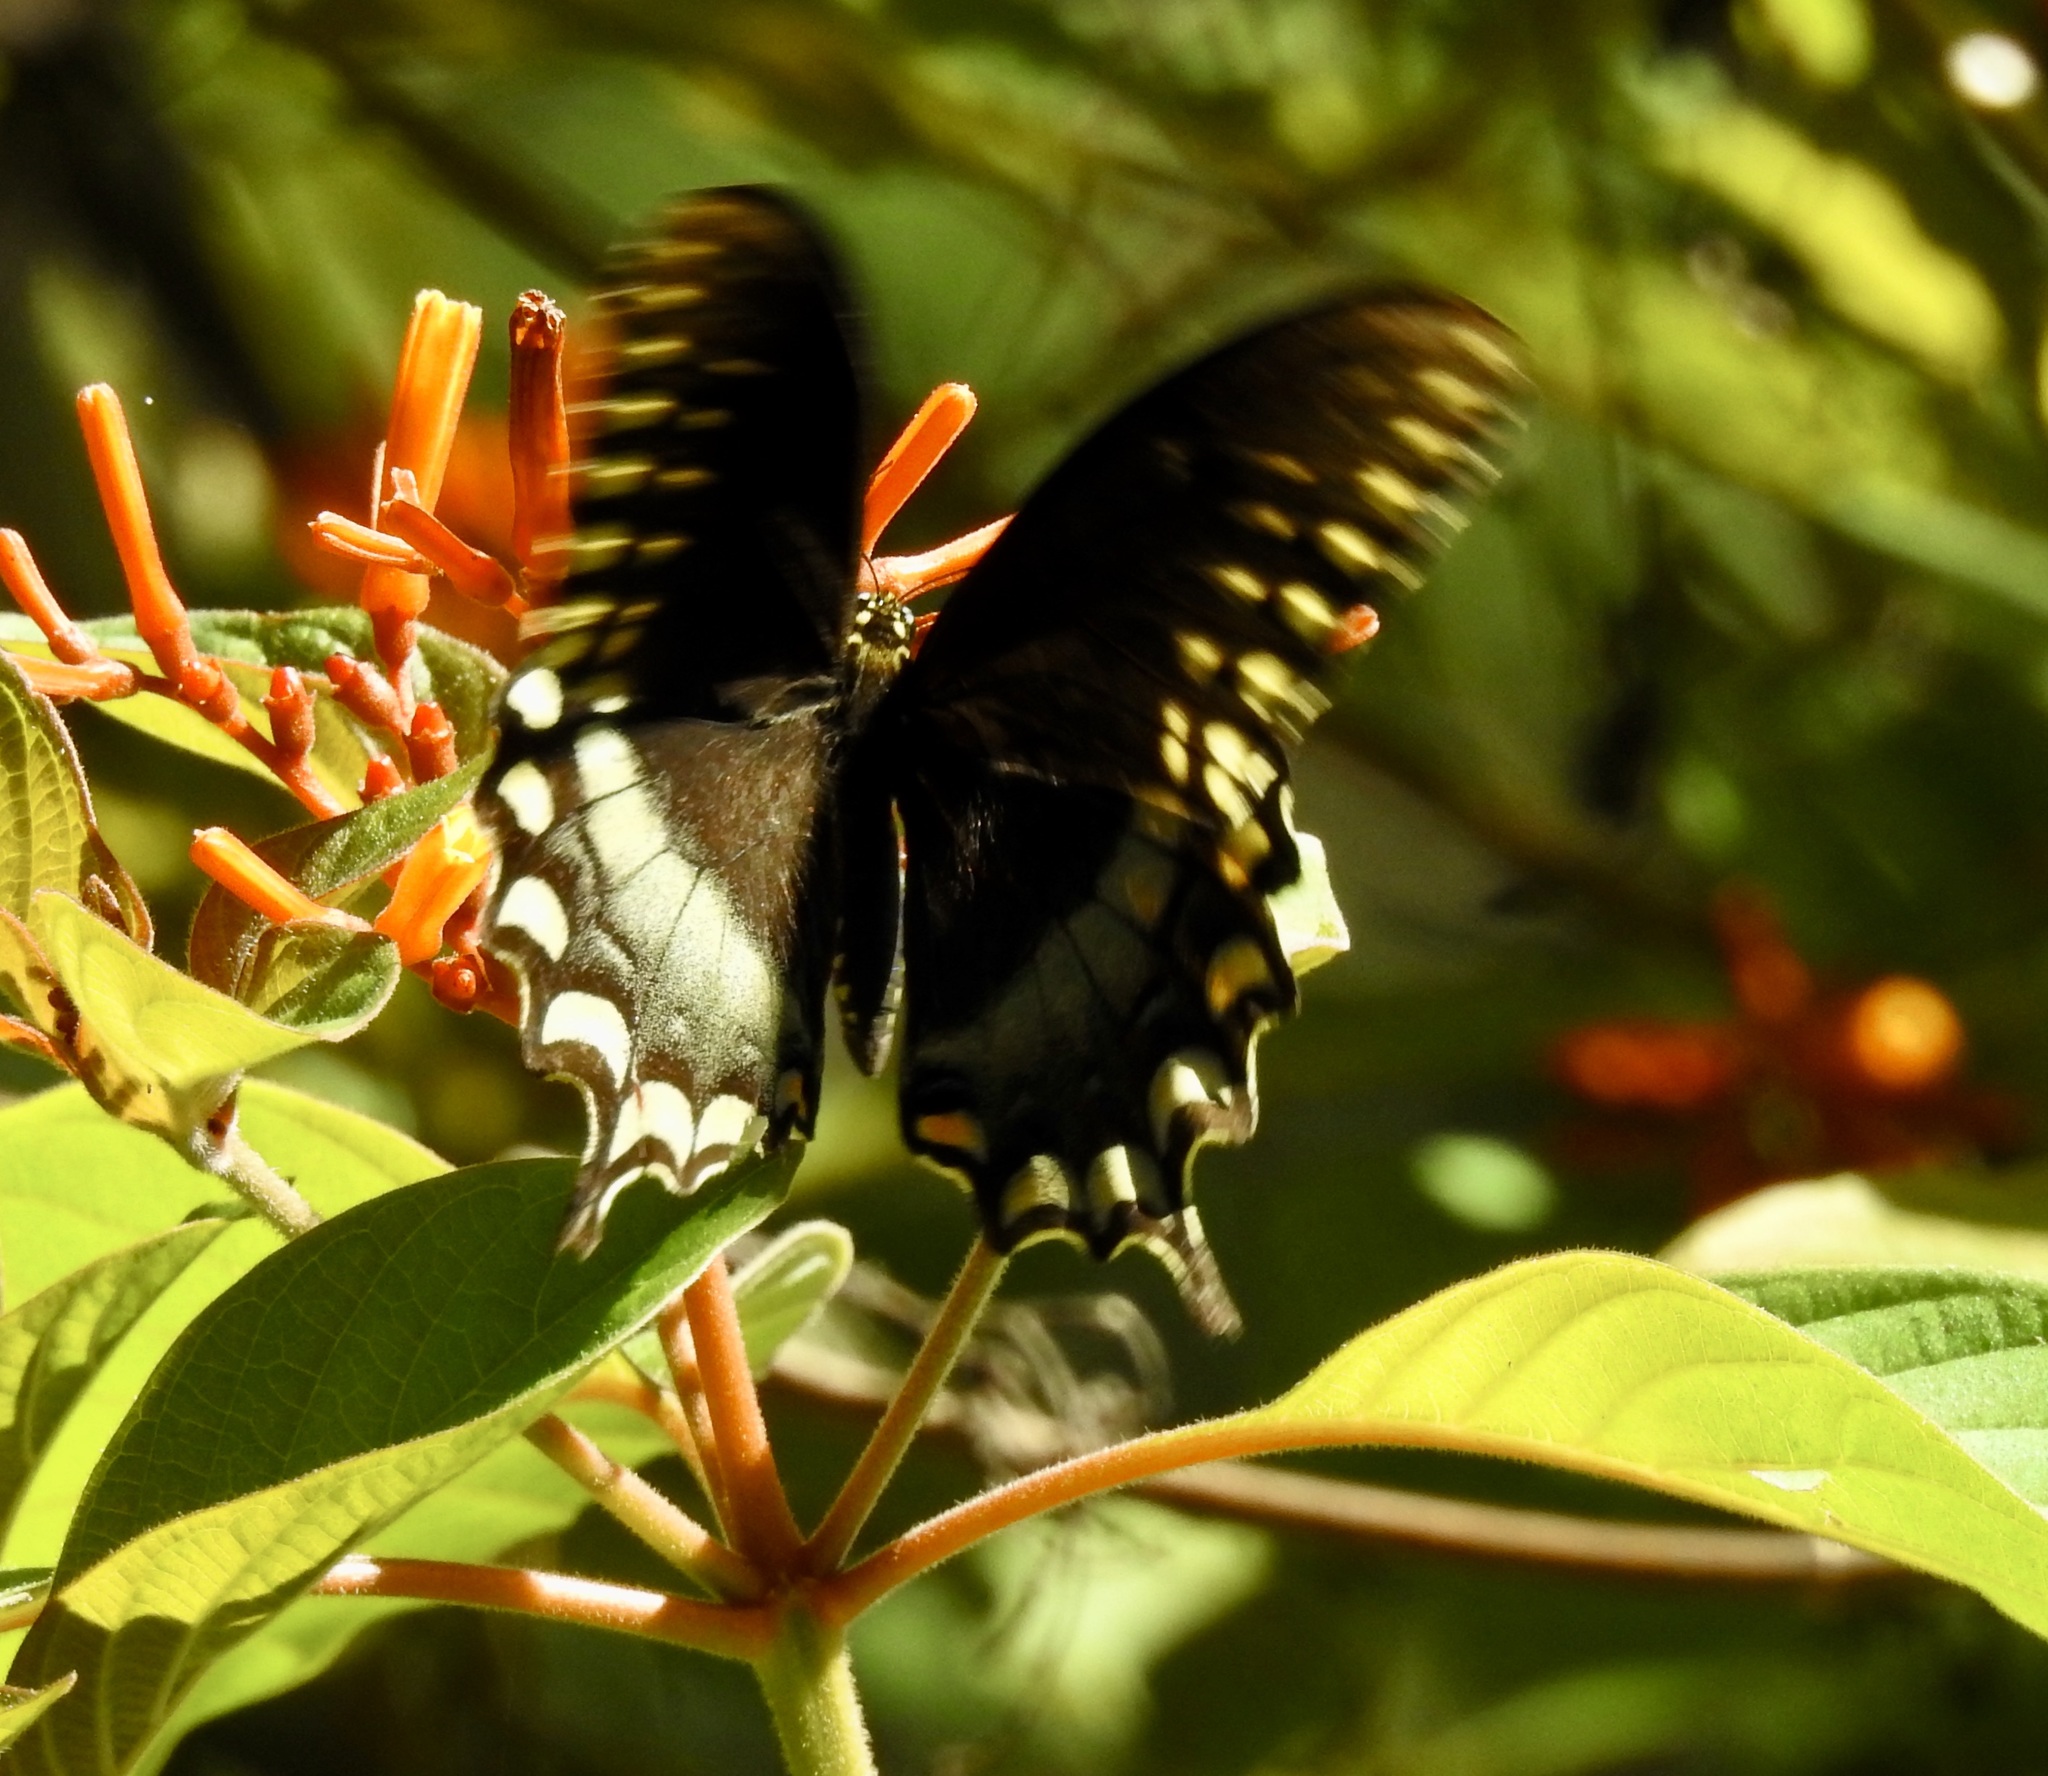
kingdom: Animalia
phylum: Arthropoda
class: Insecta
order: Lepidoptera
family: Papilionidae
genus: Papilio
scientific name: Papilio troilus
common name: Spicebush swallowtail
